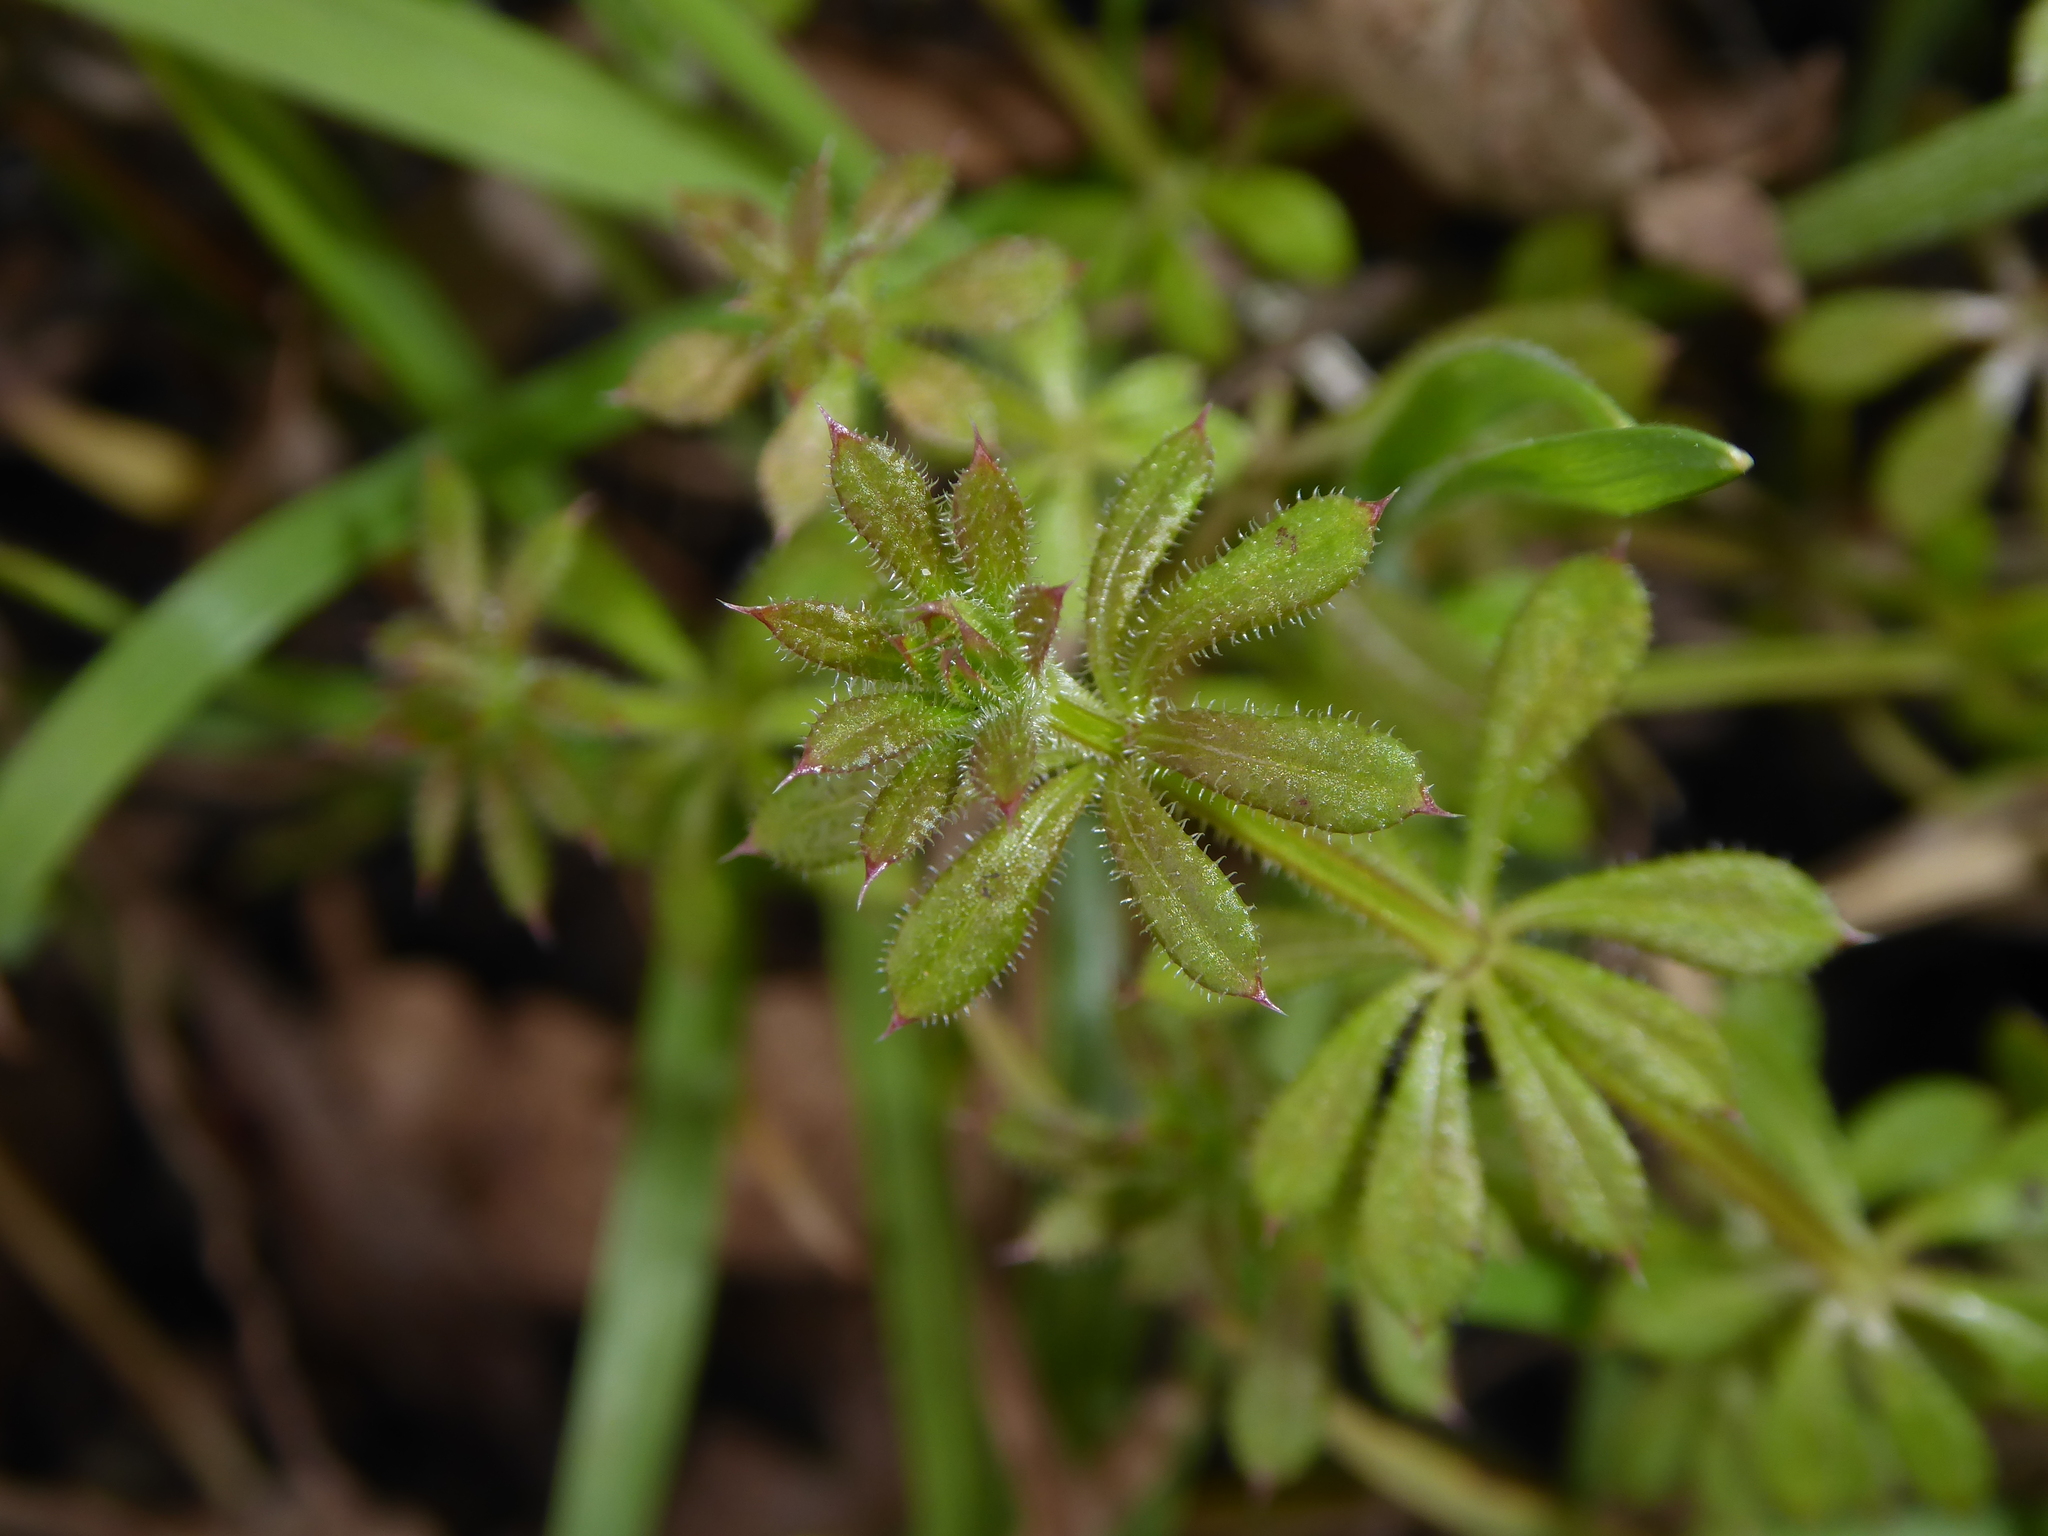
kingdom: Plantae
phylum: Tracheophyta
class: Magnoliopsida
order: Gentianales
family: Rubiaceae
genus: Galium
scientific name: Galium aparine
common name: Cleavers
